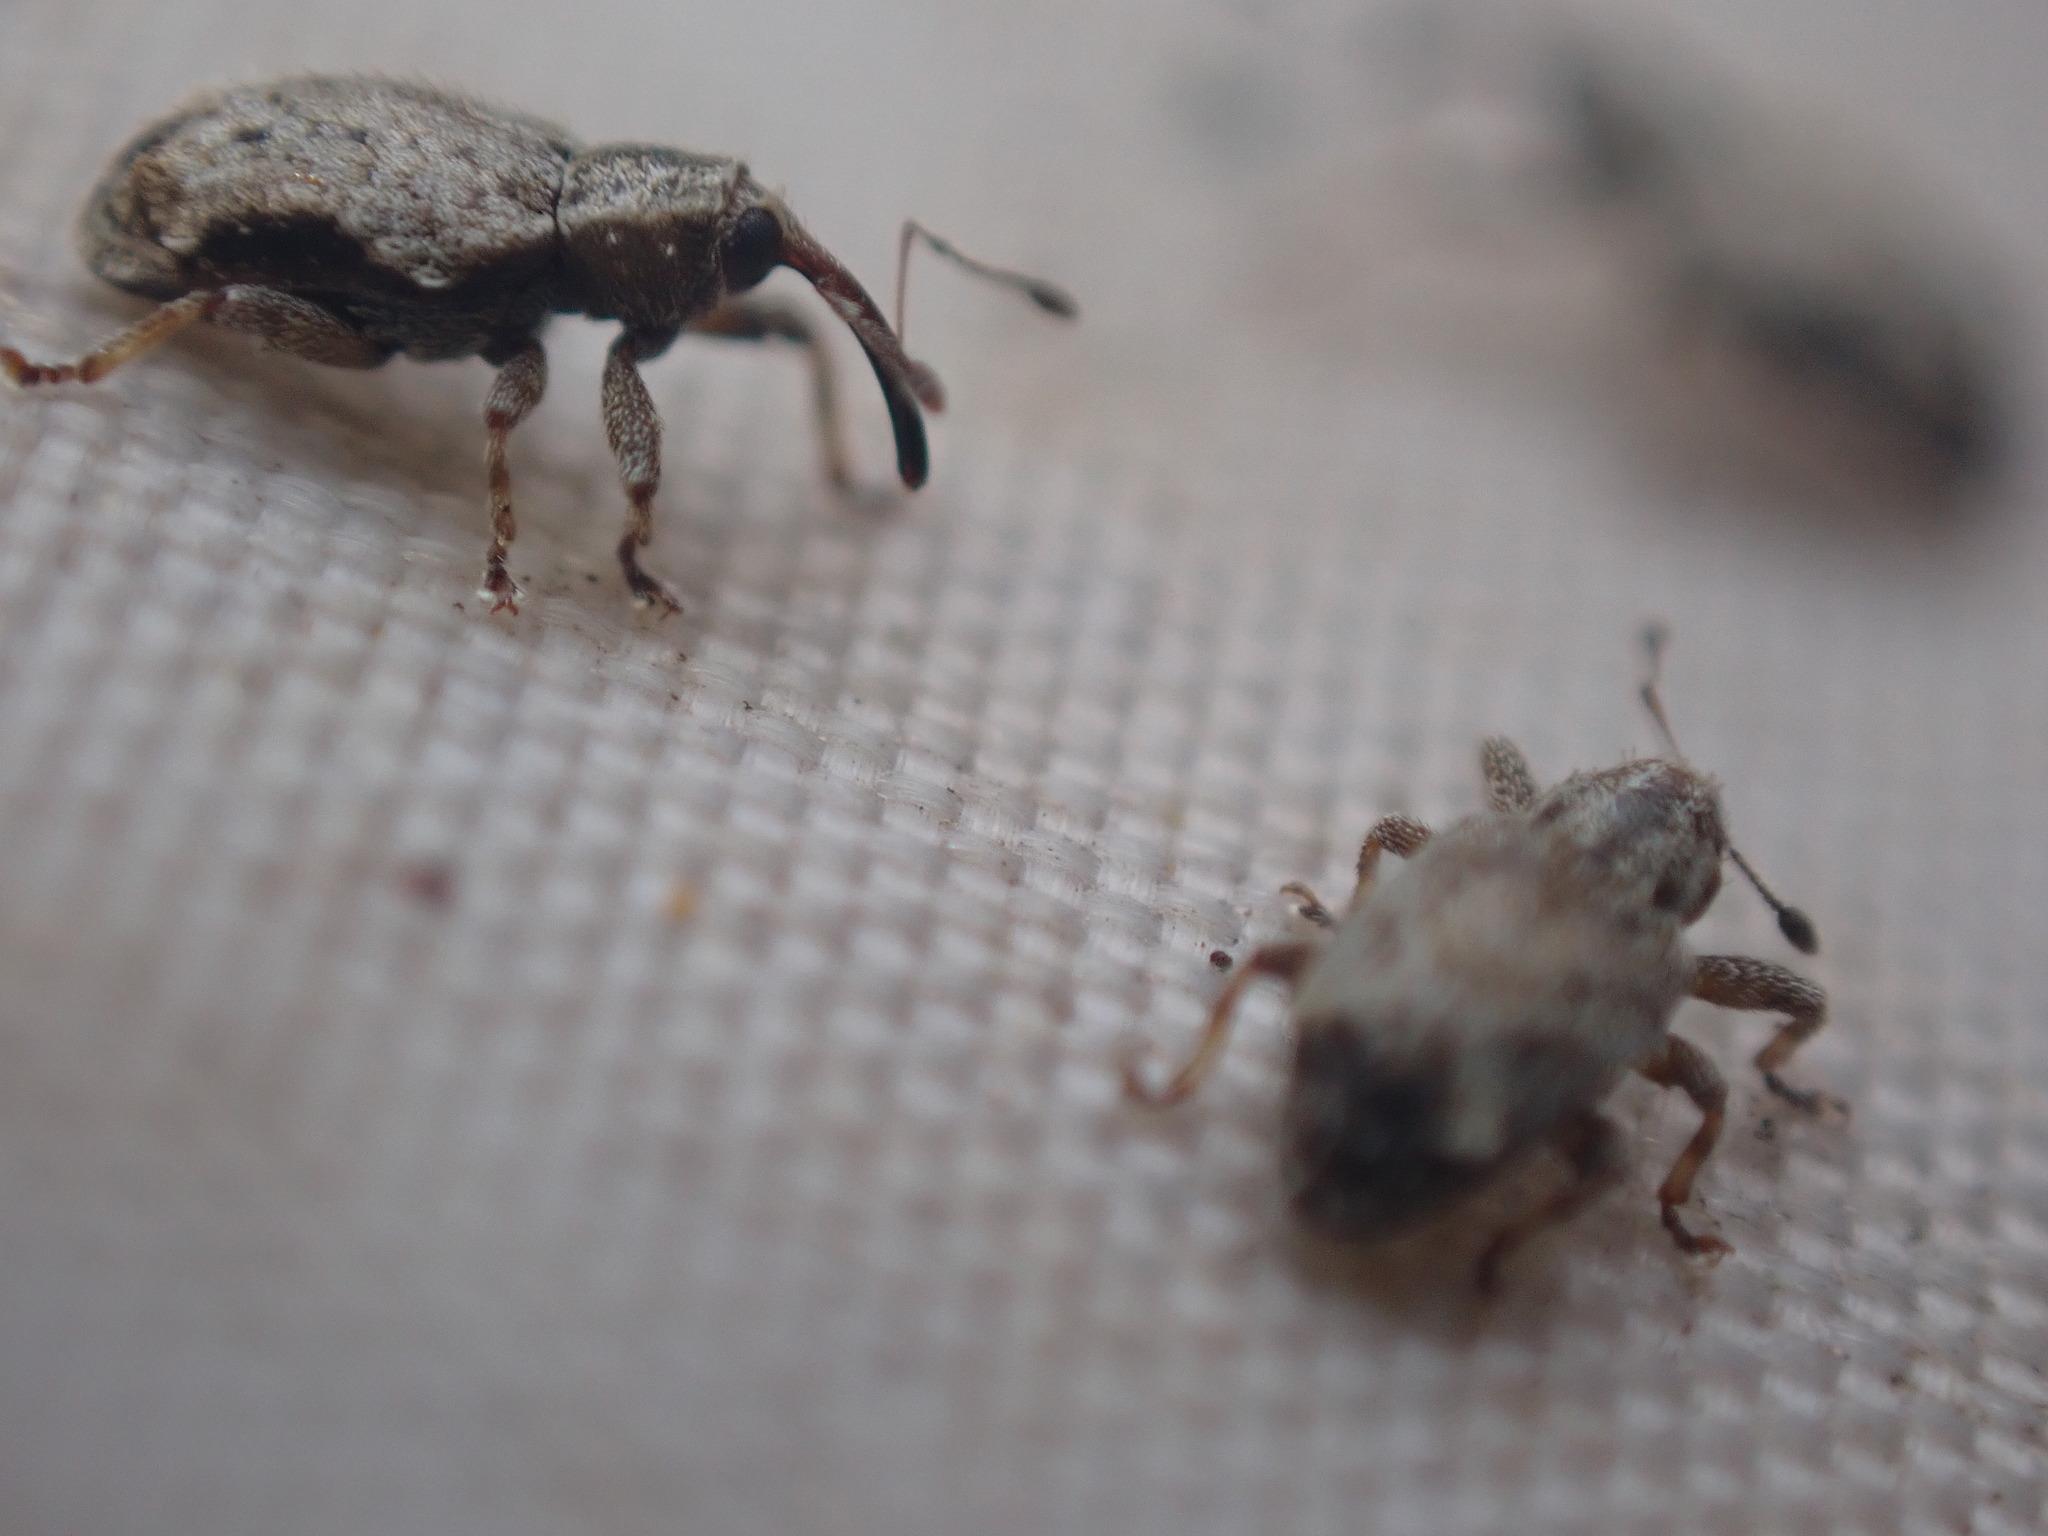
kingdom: Animalia
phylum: Arthropoda
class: Insecta
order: Coleoptera
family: Curculionidae
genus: Praolepra
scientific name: Praolepra squamosa
